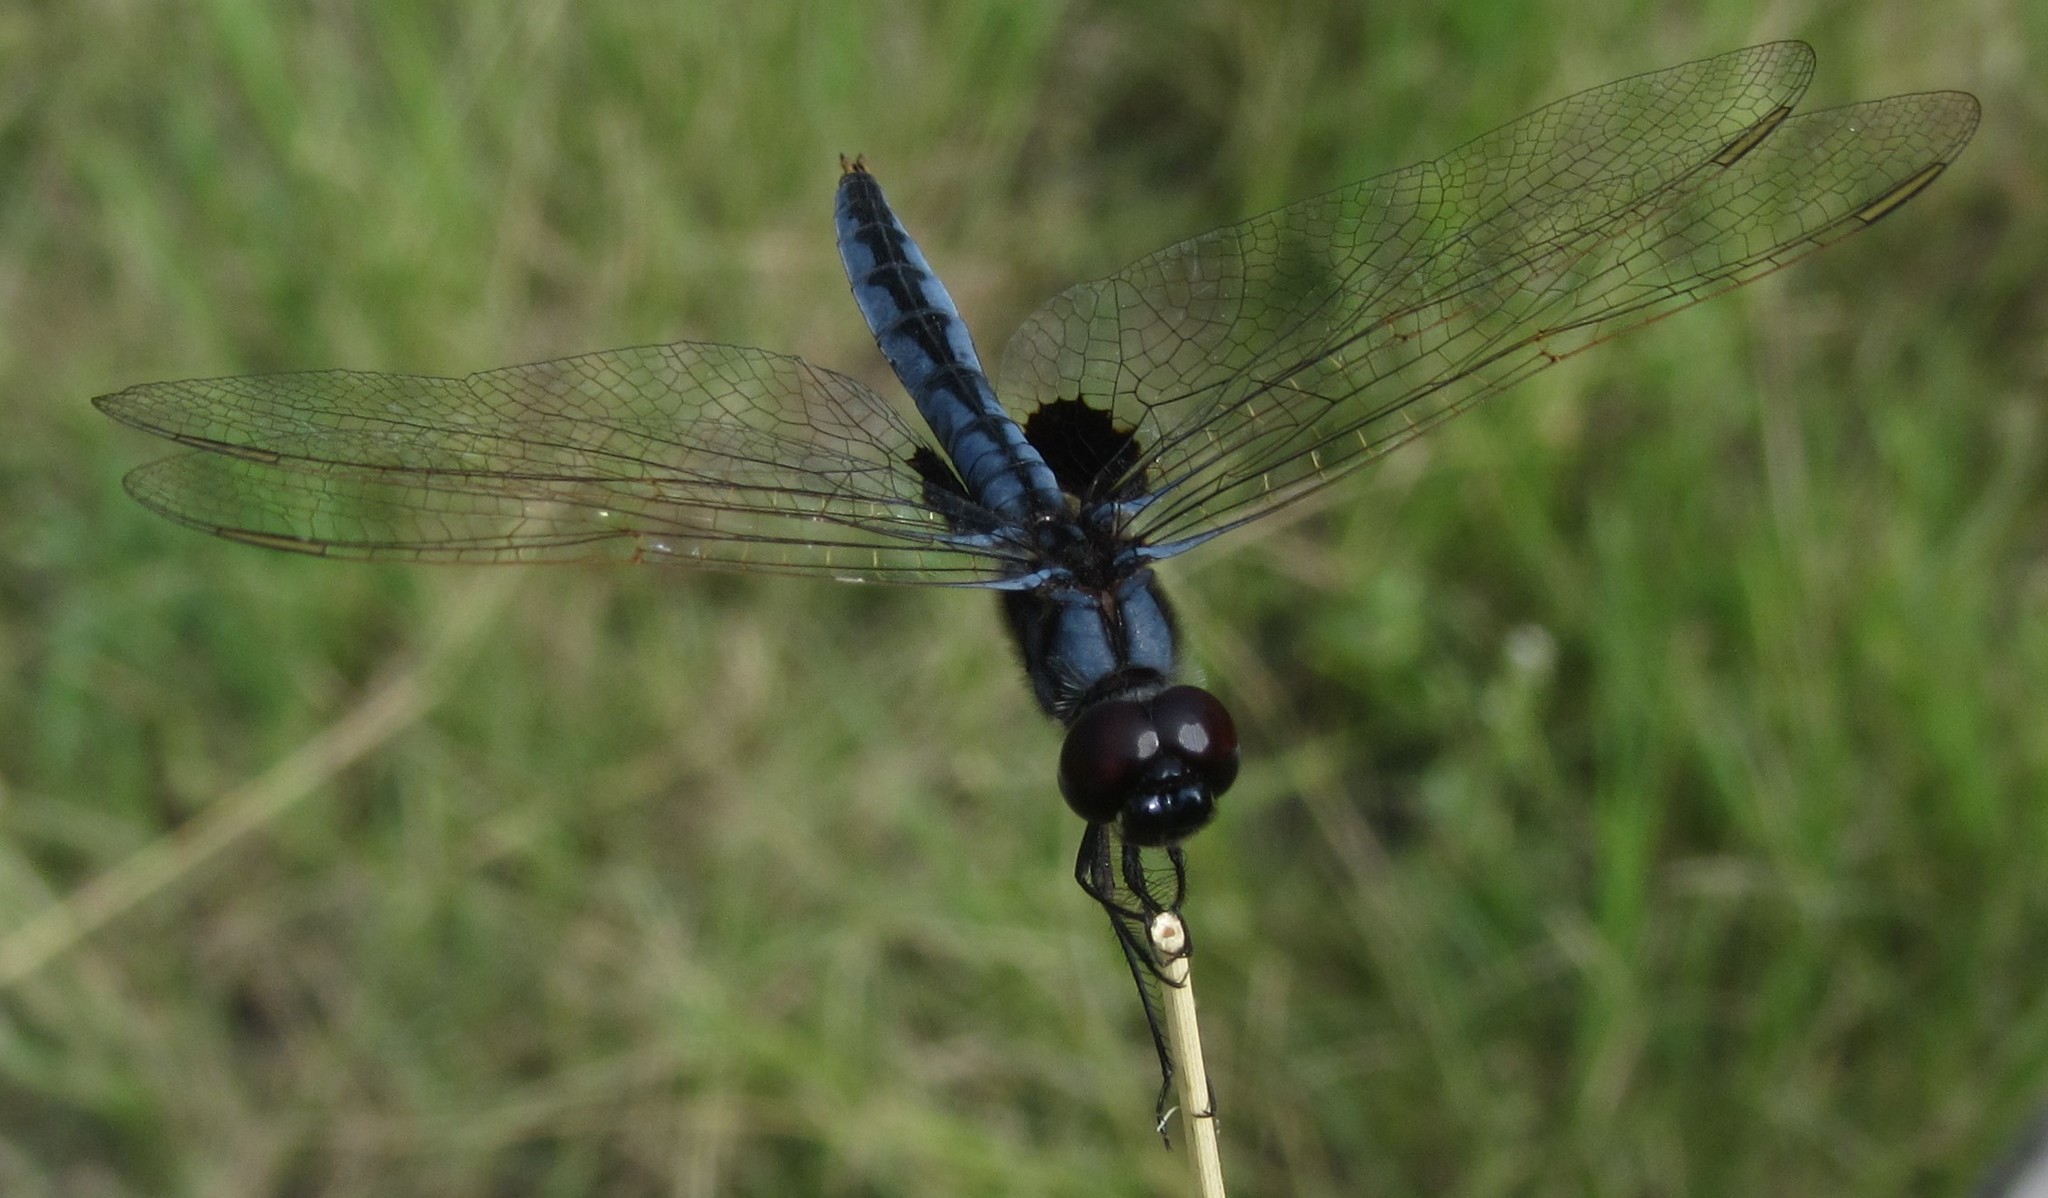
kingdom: Animalia
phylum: Arthropoda
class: Insecta
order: Odonata
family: Libellulidae
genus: Urothemis
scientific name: Urothemis edwardsii
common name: Blue basker
